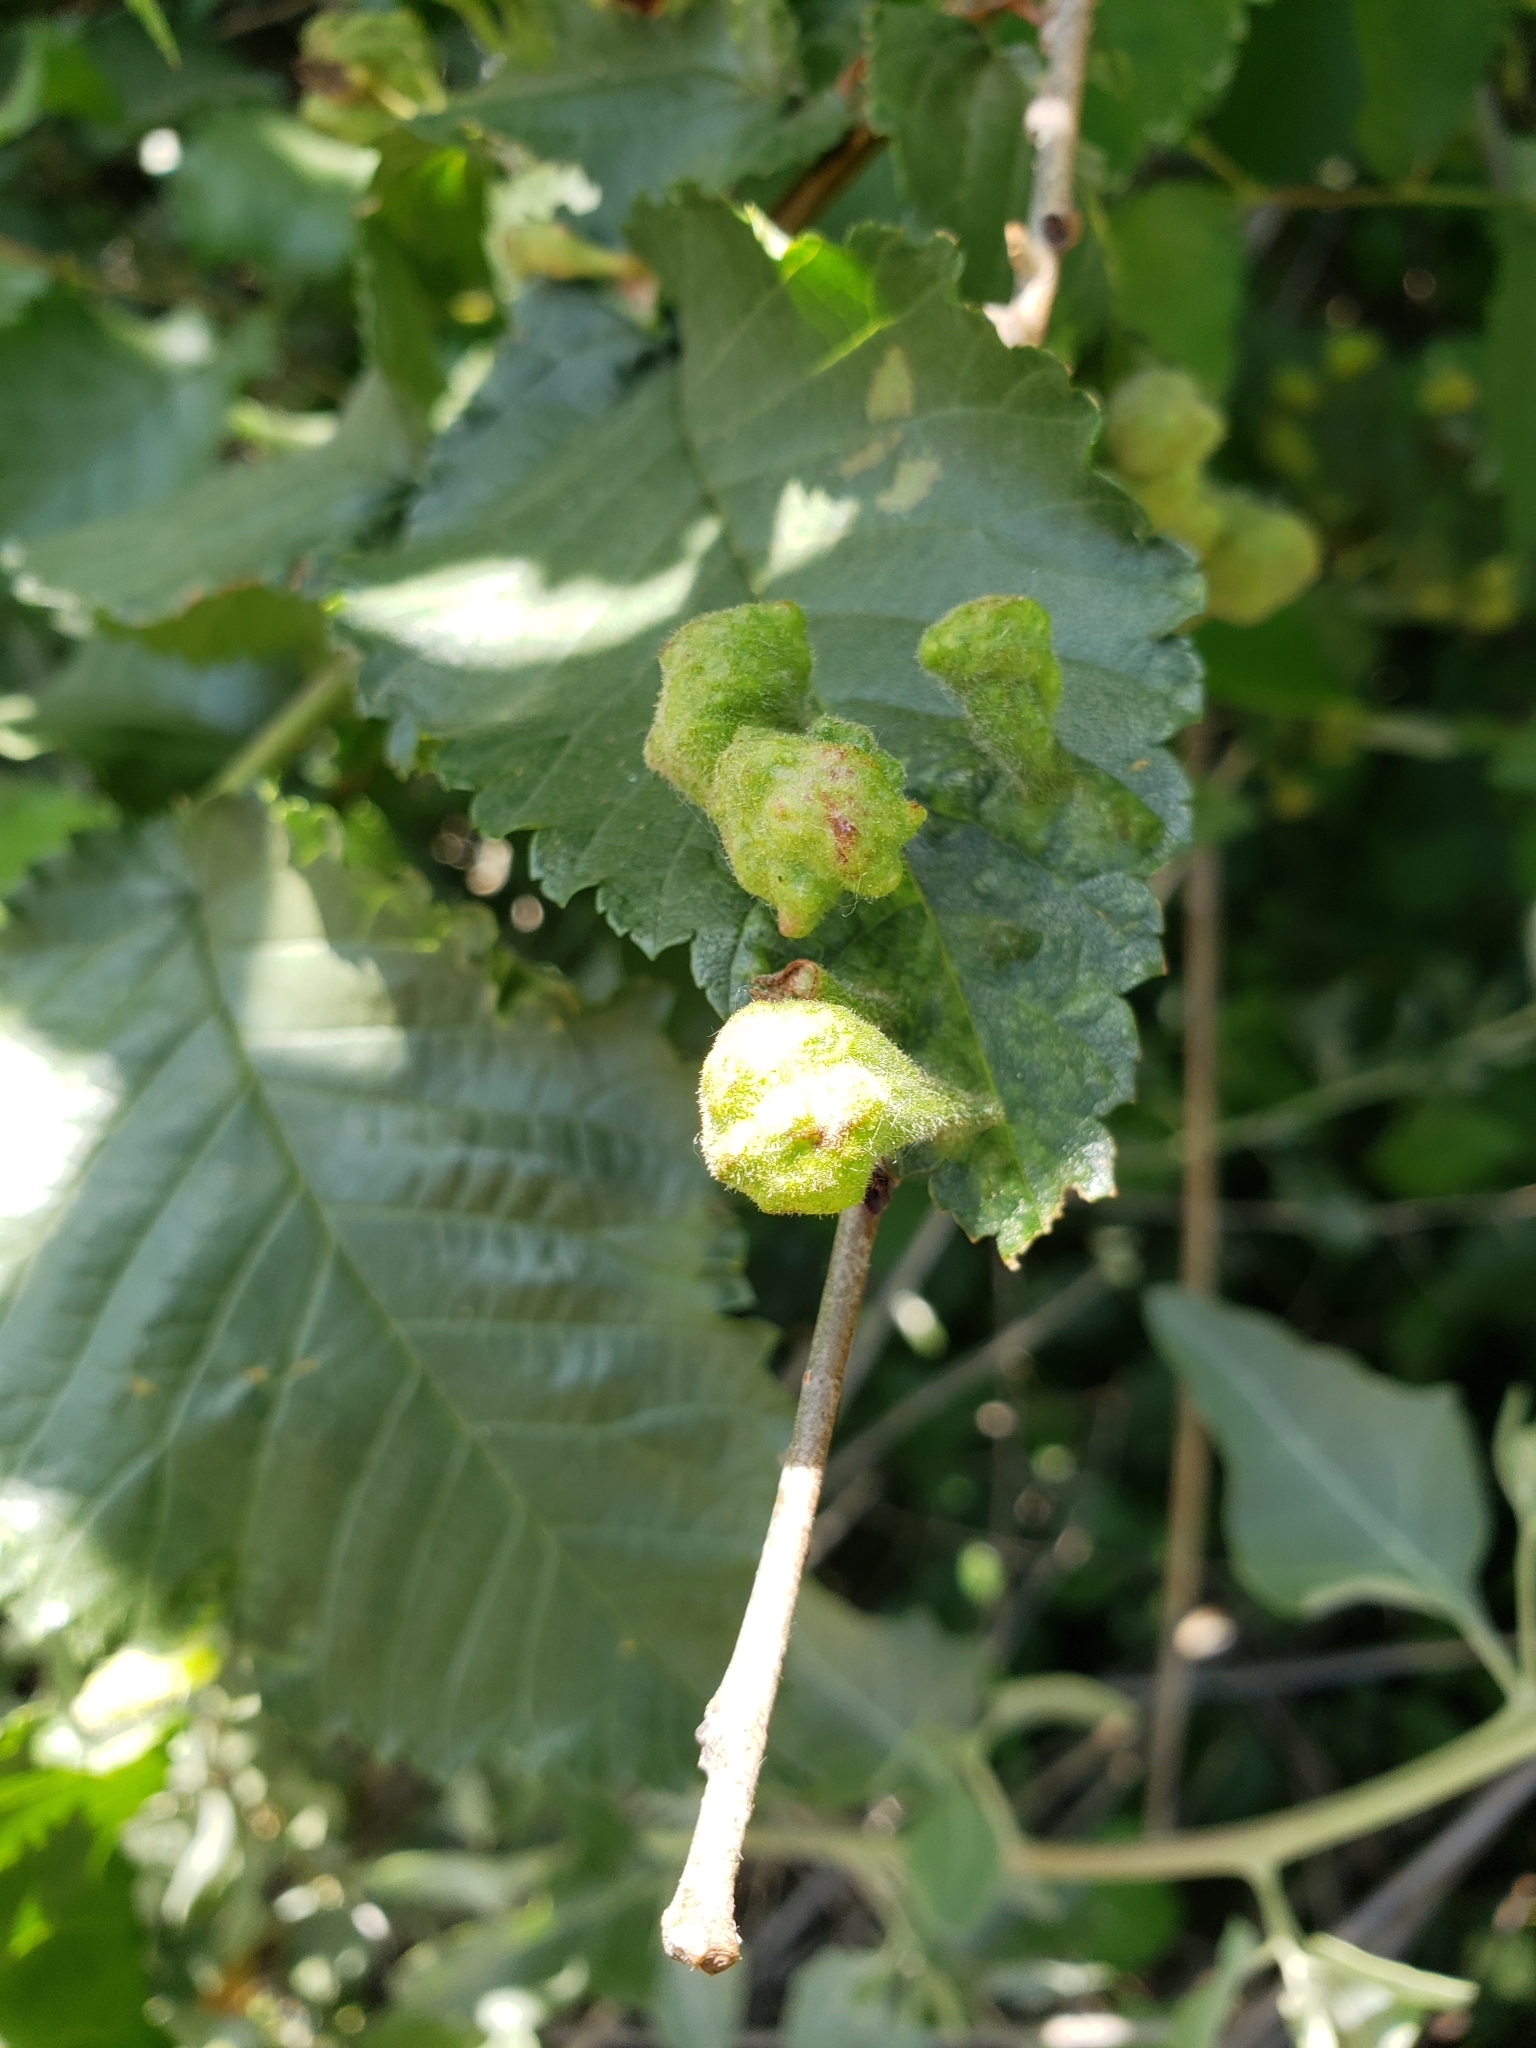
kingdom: Animalia
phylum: Arthropoda
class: Insecta
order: Hemiptera
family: Aphididae
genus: Tetraneura
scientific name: Tetraneura nigriabdominalis
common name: Aphid
